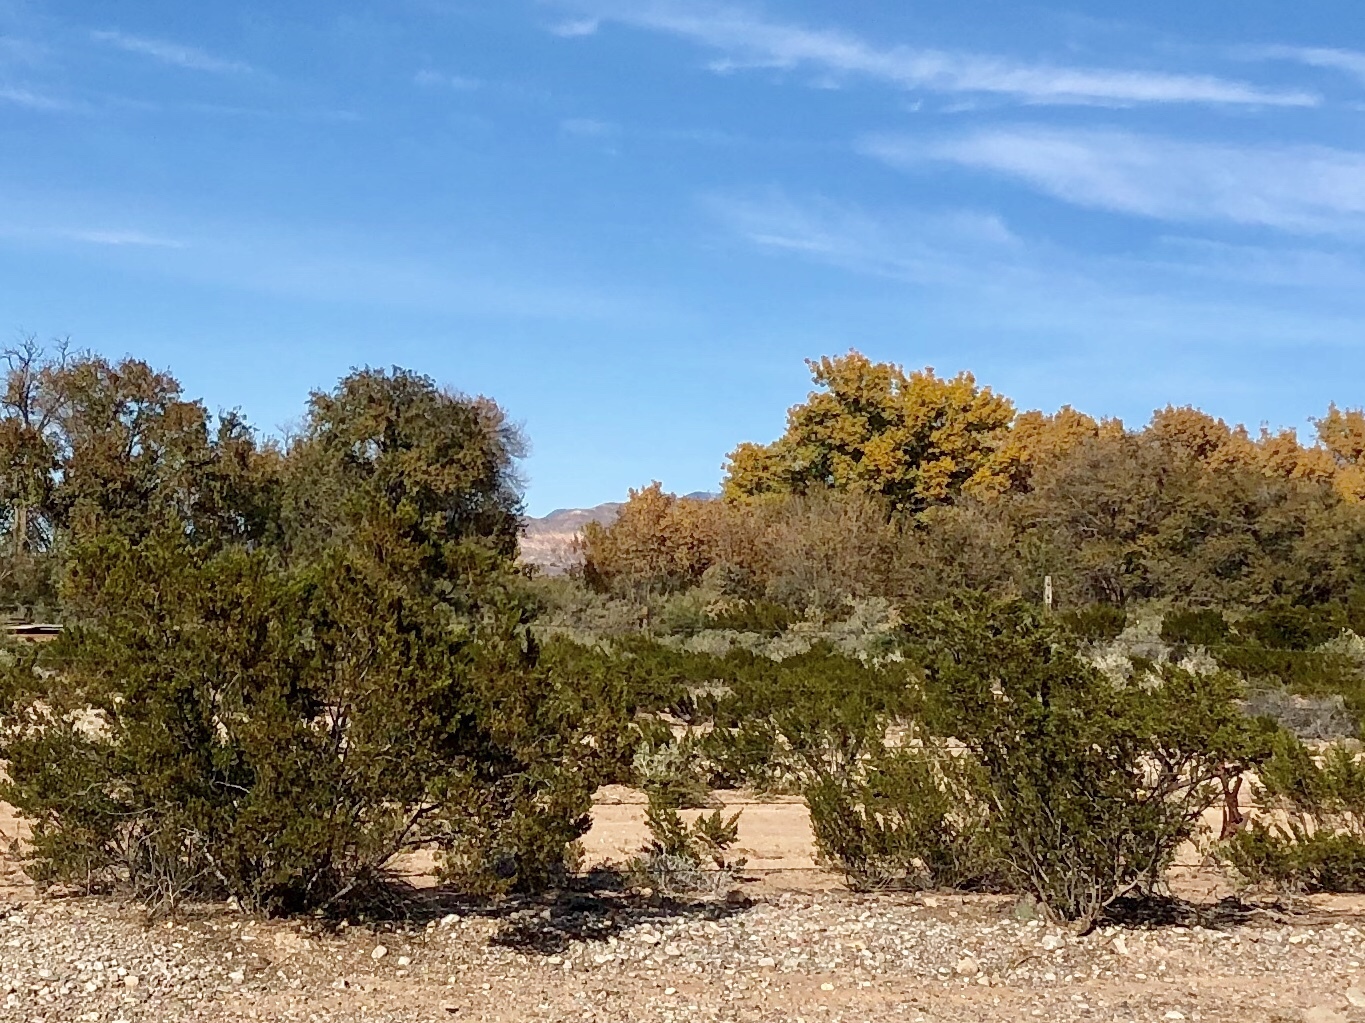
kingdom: Plantae
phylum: Tracheophyta
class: Magnoliopsida
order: Zygophyllales
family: Zygophyllaceae
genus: Larrea
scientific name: Larrea tridentata
